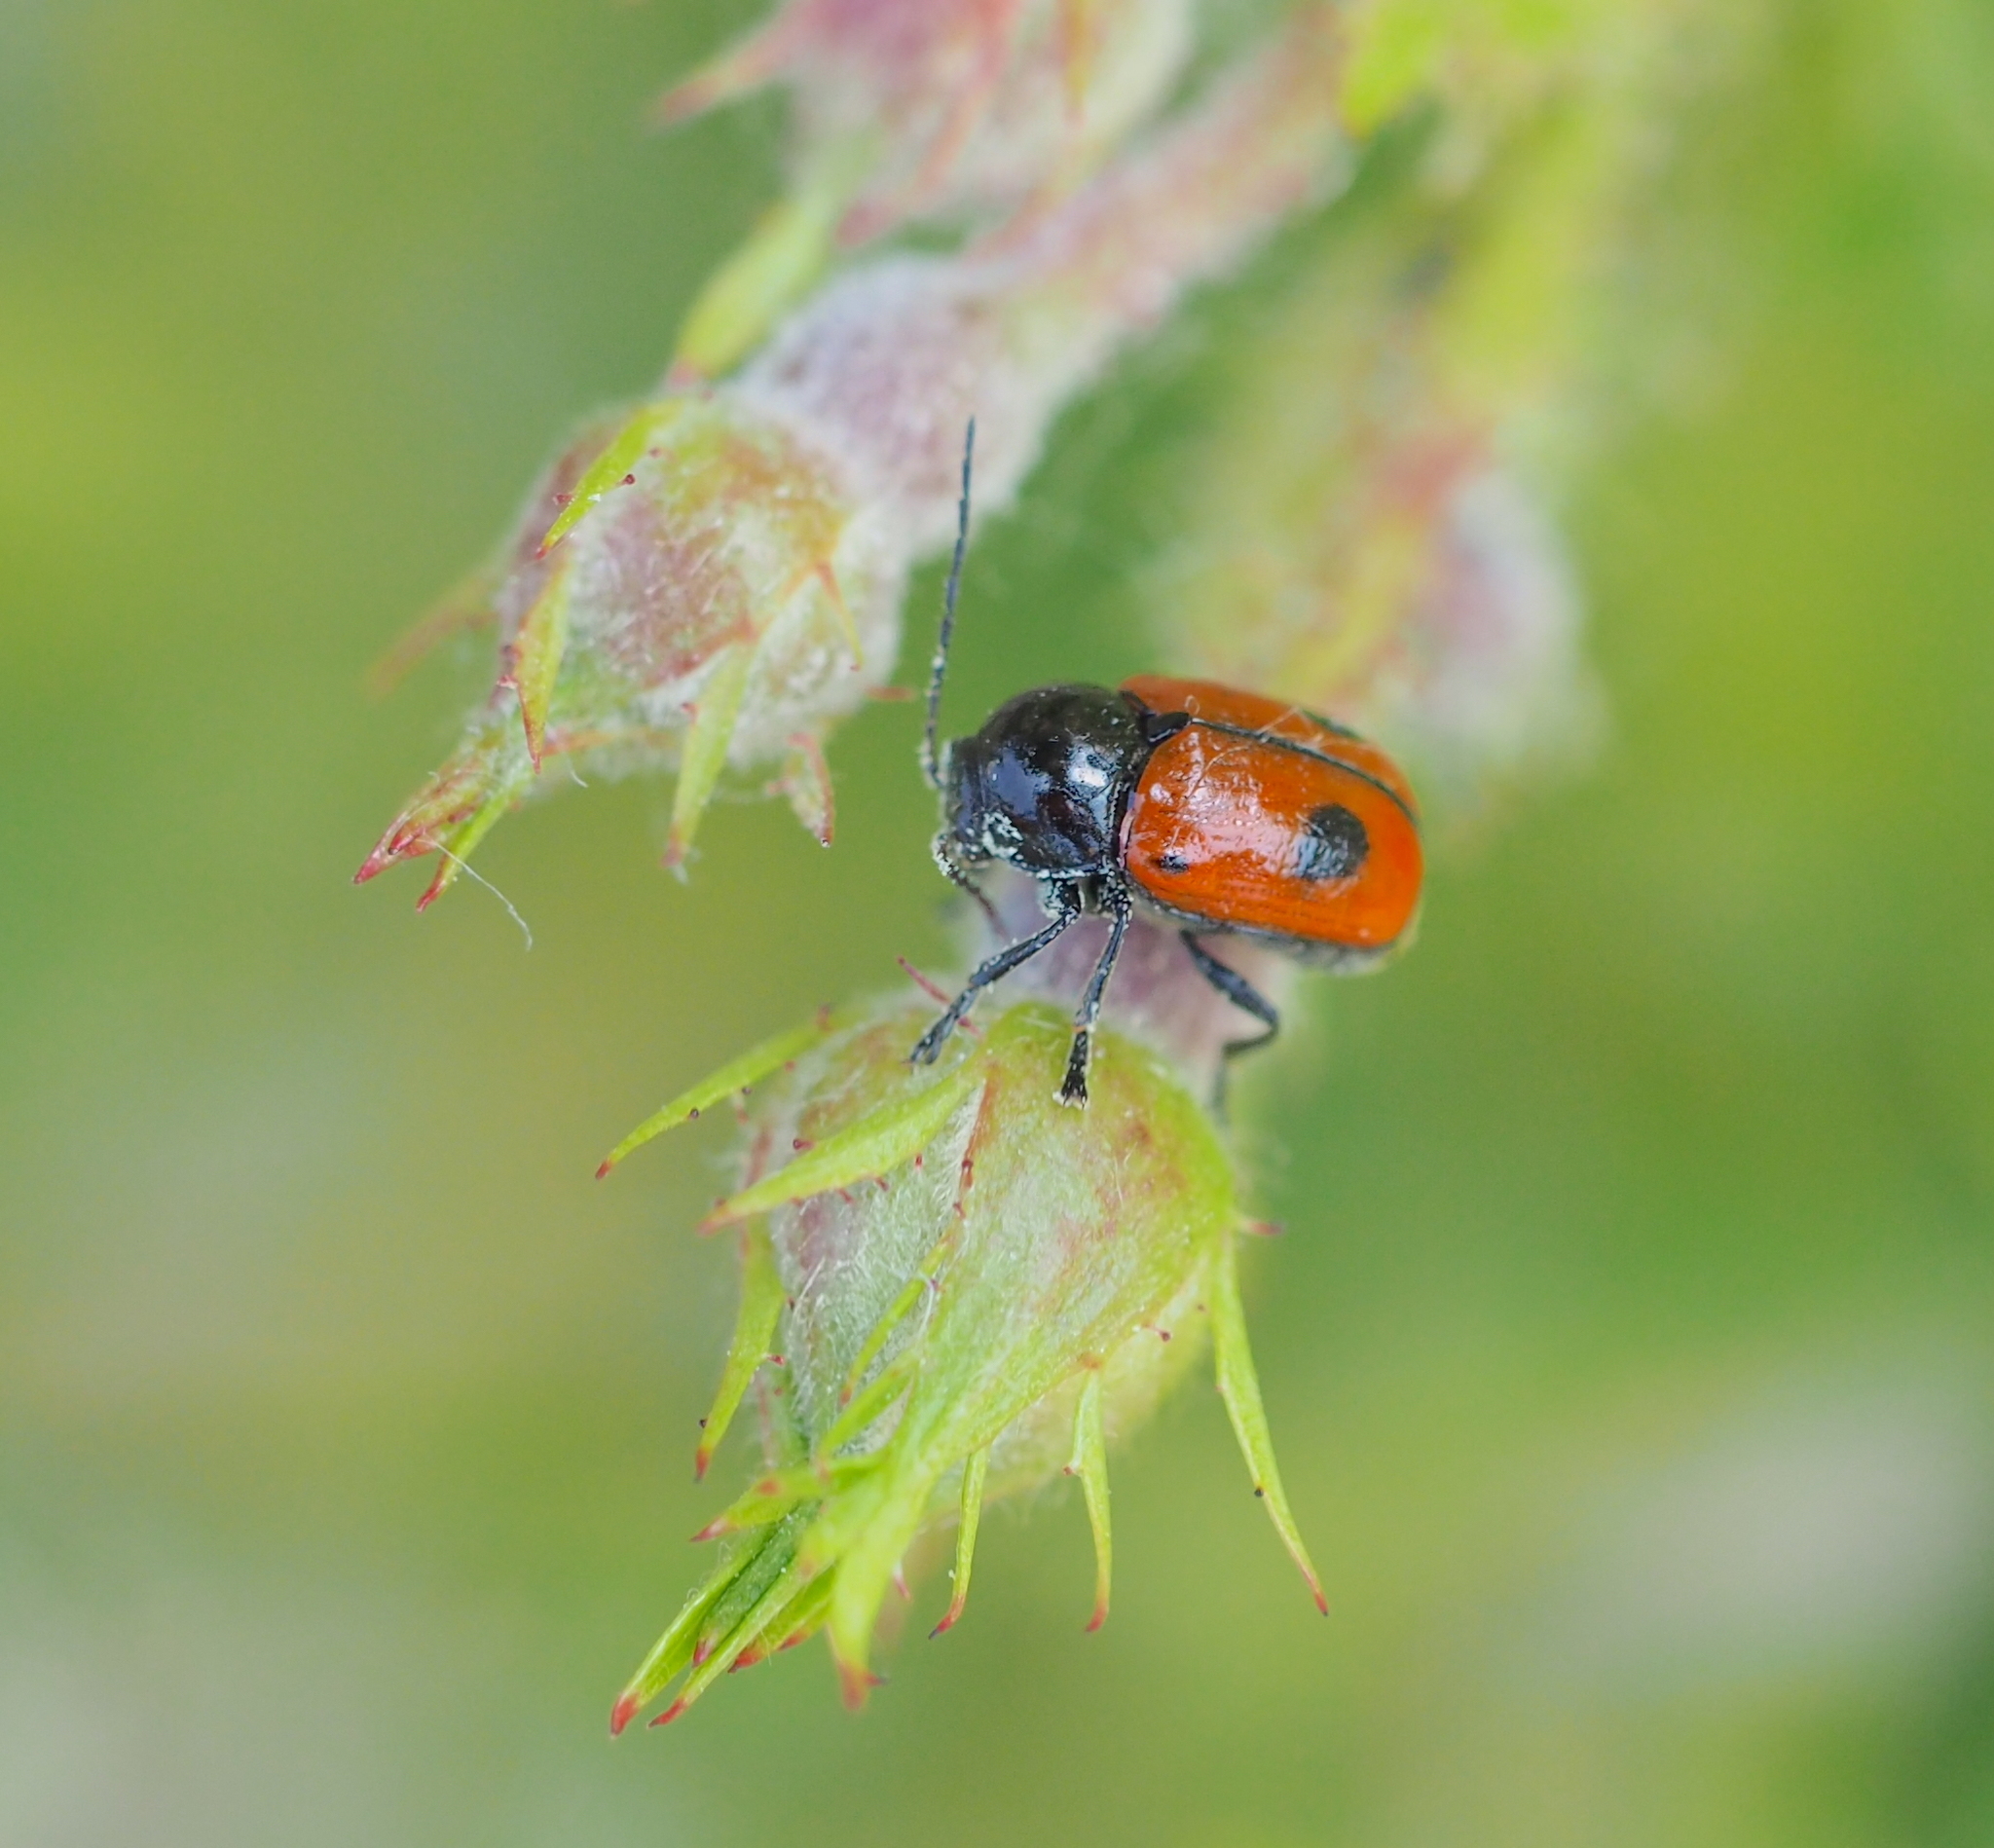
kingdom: Animalia
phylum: Arthropoda
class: Insecta
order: Coleoptera
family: Chrysomelidae
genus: Chiridopsis
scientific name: Chiridopsis bipunctata
